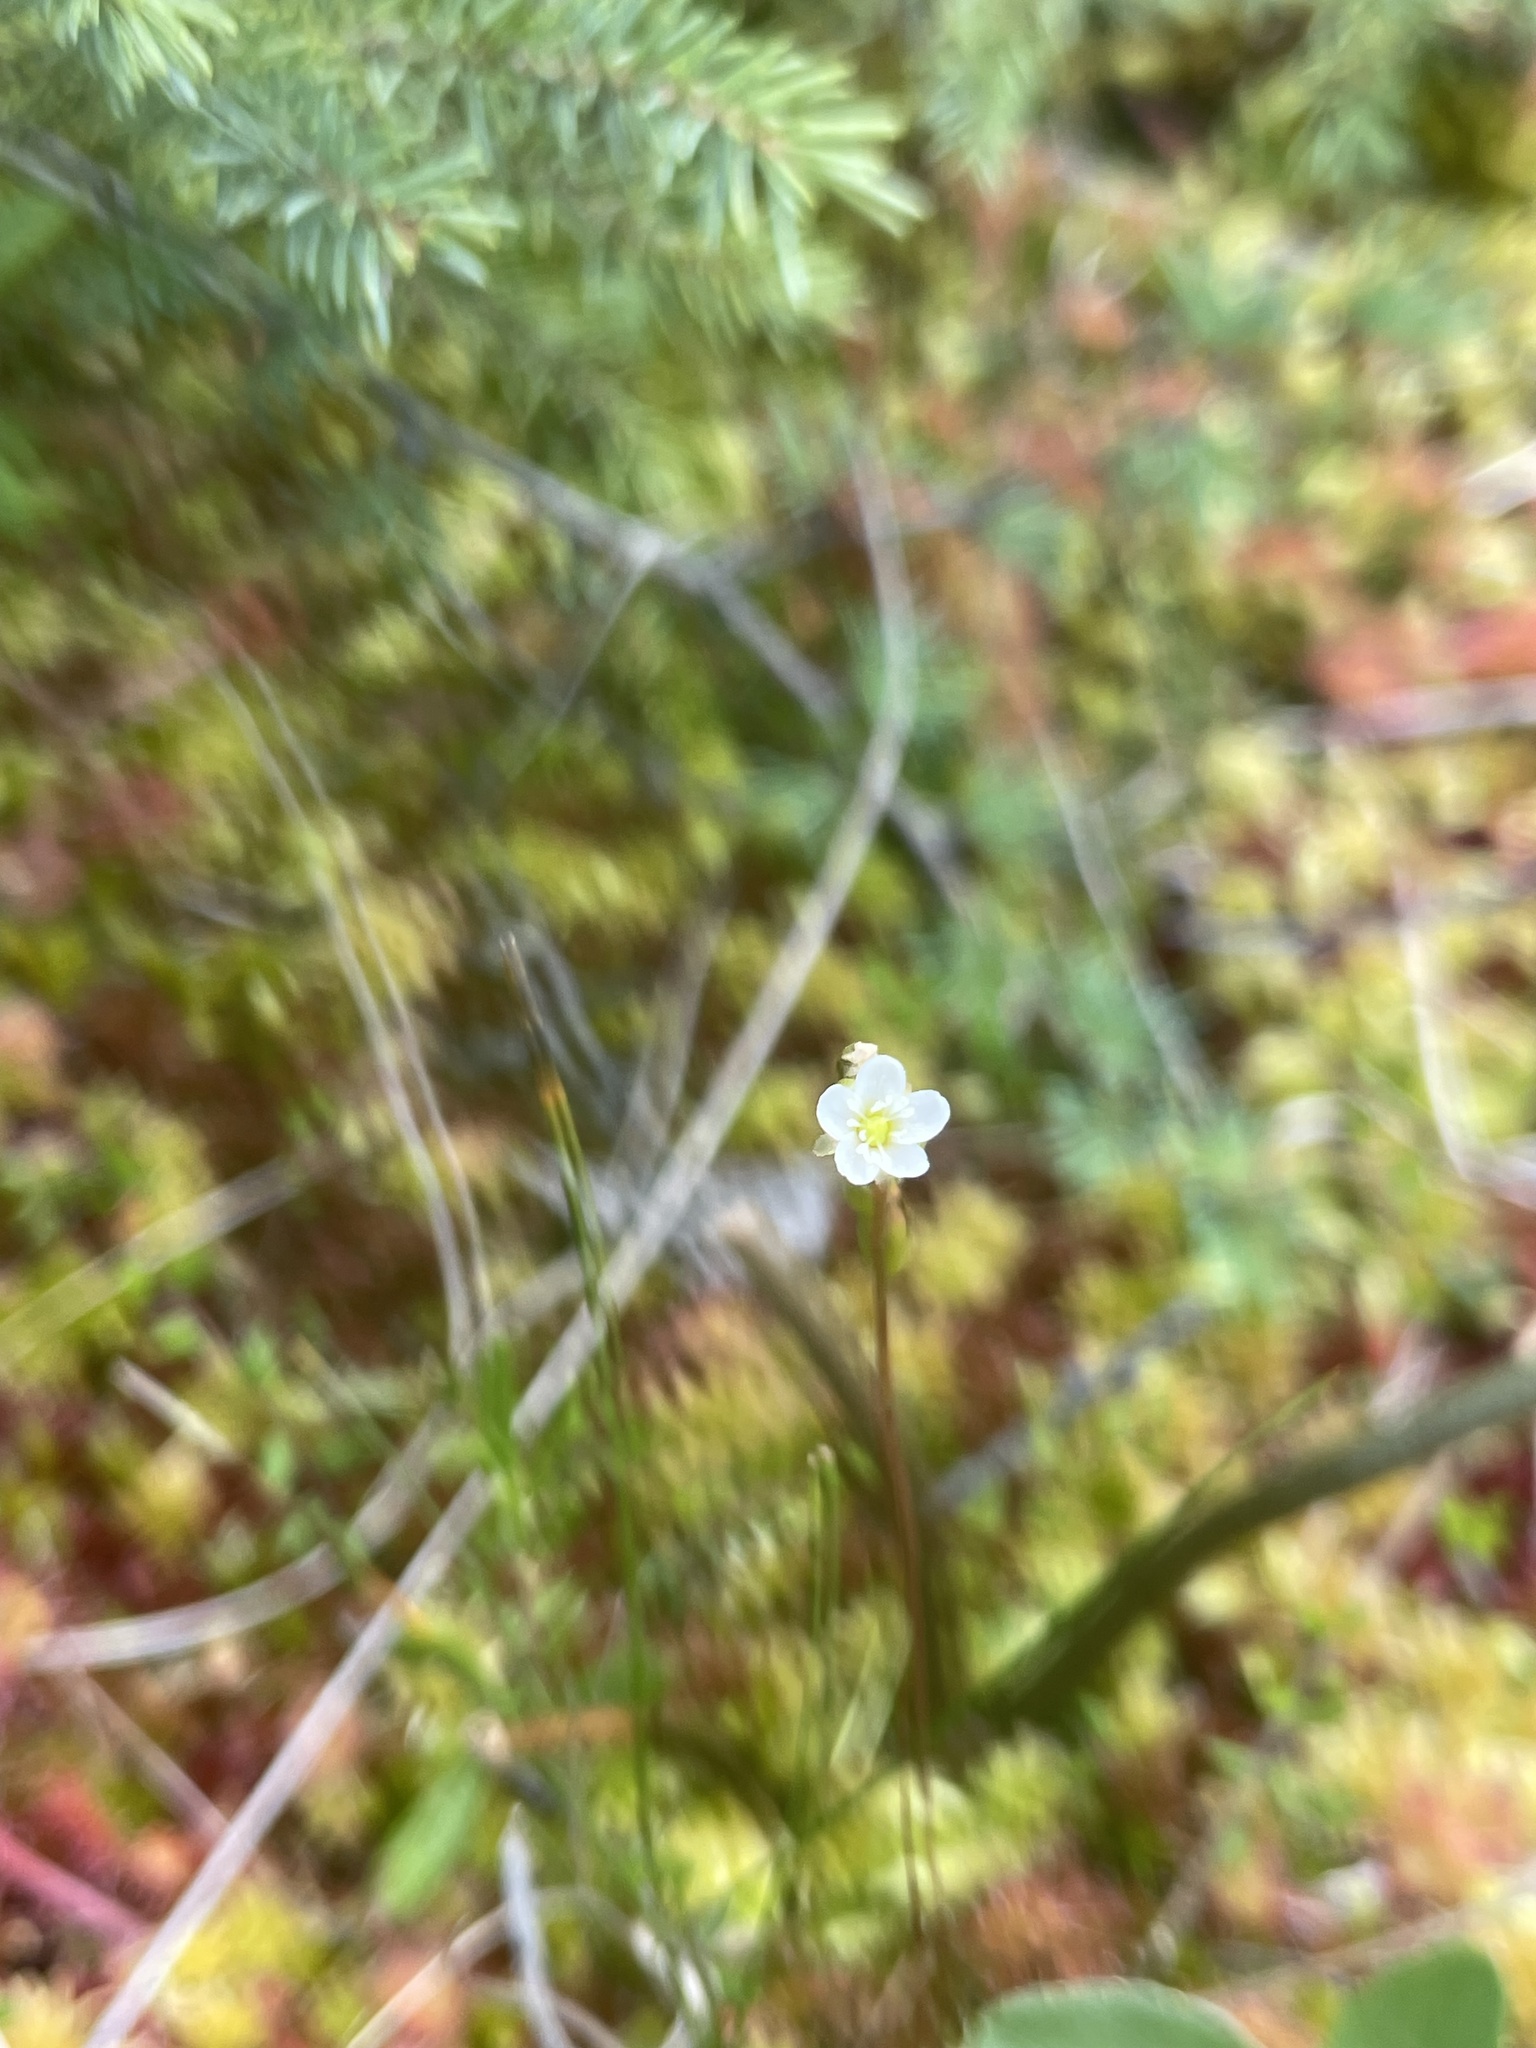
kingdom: Plantae
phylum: Tracheophyta
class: Magnoliopsida
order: Caryophyllales
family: Droseraceae
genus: Drosera
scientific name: Drosera rotundifolia
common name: Round-leaved sundew
